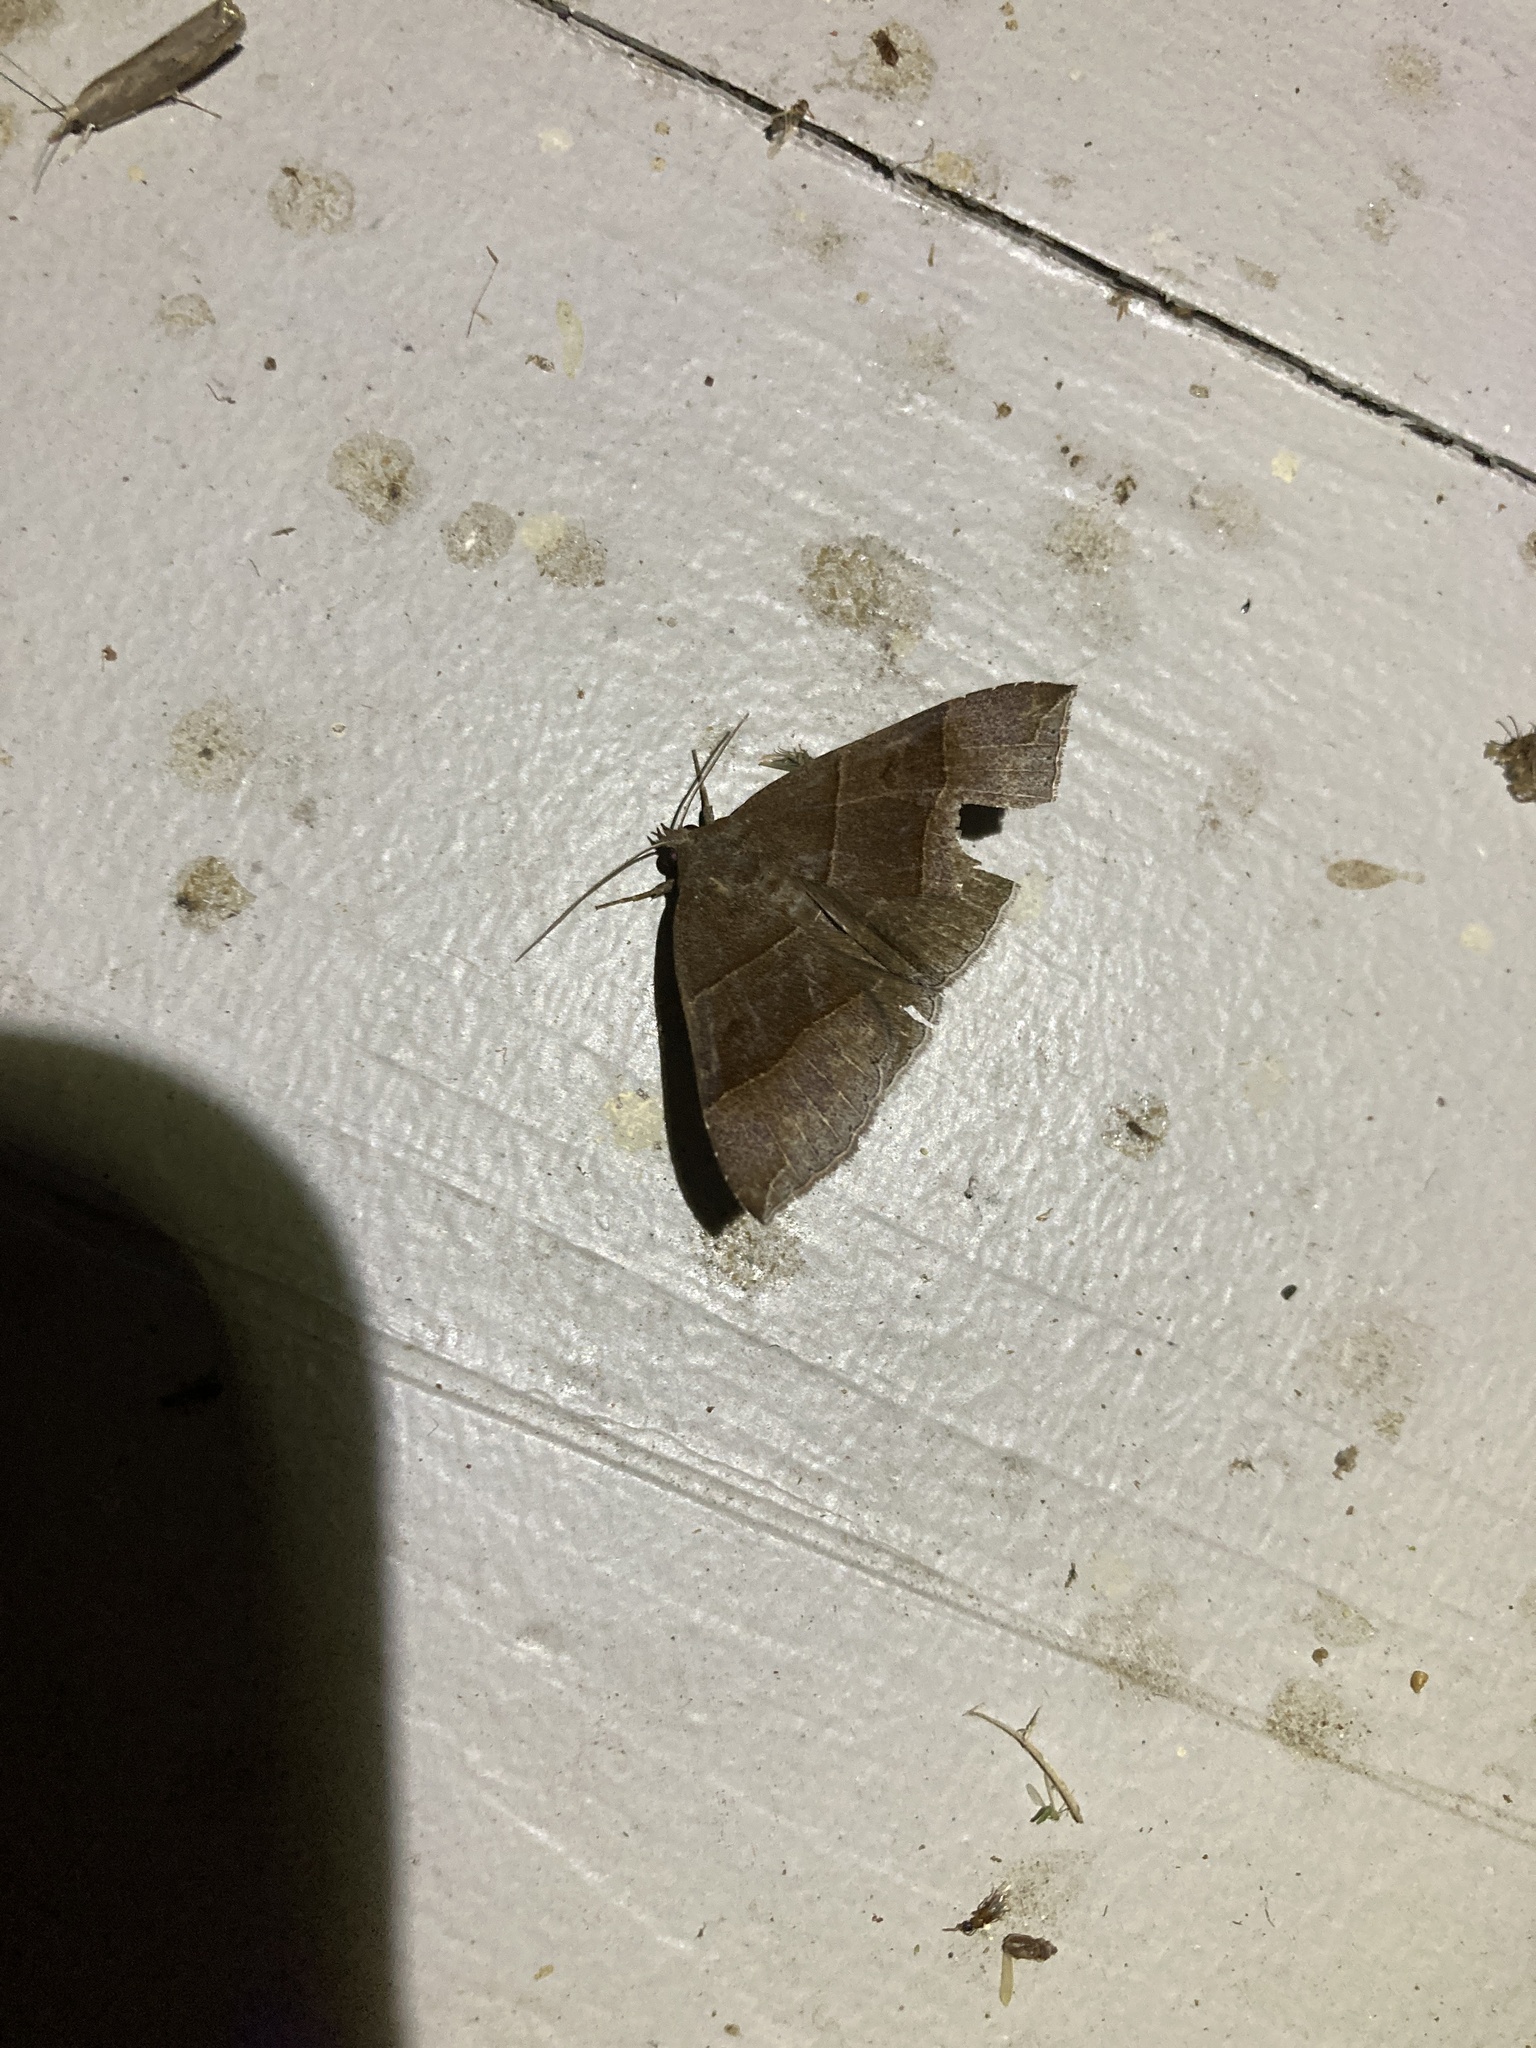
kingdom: Animalia
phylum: Arthropoda
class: Insecta
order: Lepidoptera
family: Erebidae
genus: Parallelia
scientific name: Parallelia bistriaris
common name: Maple looper moth
